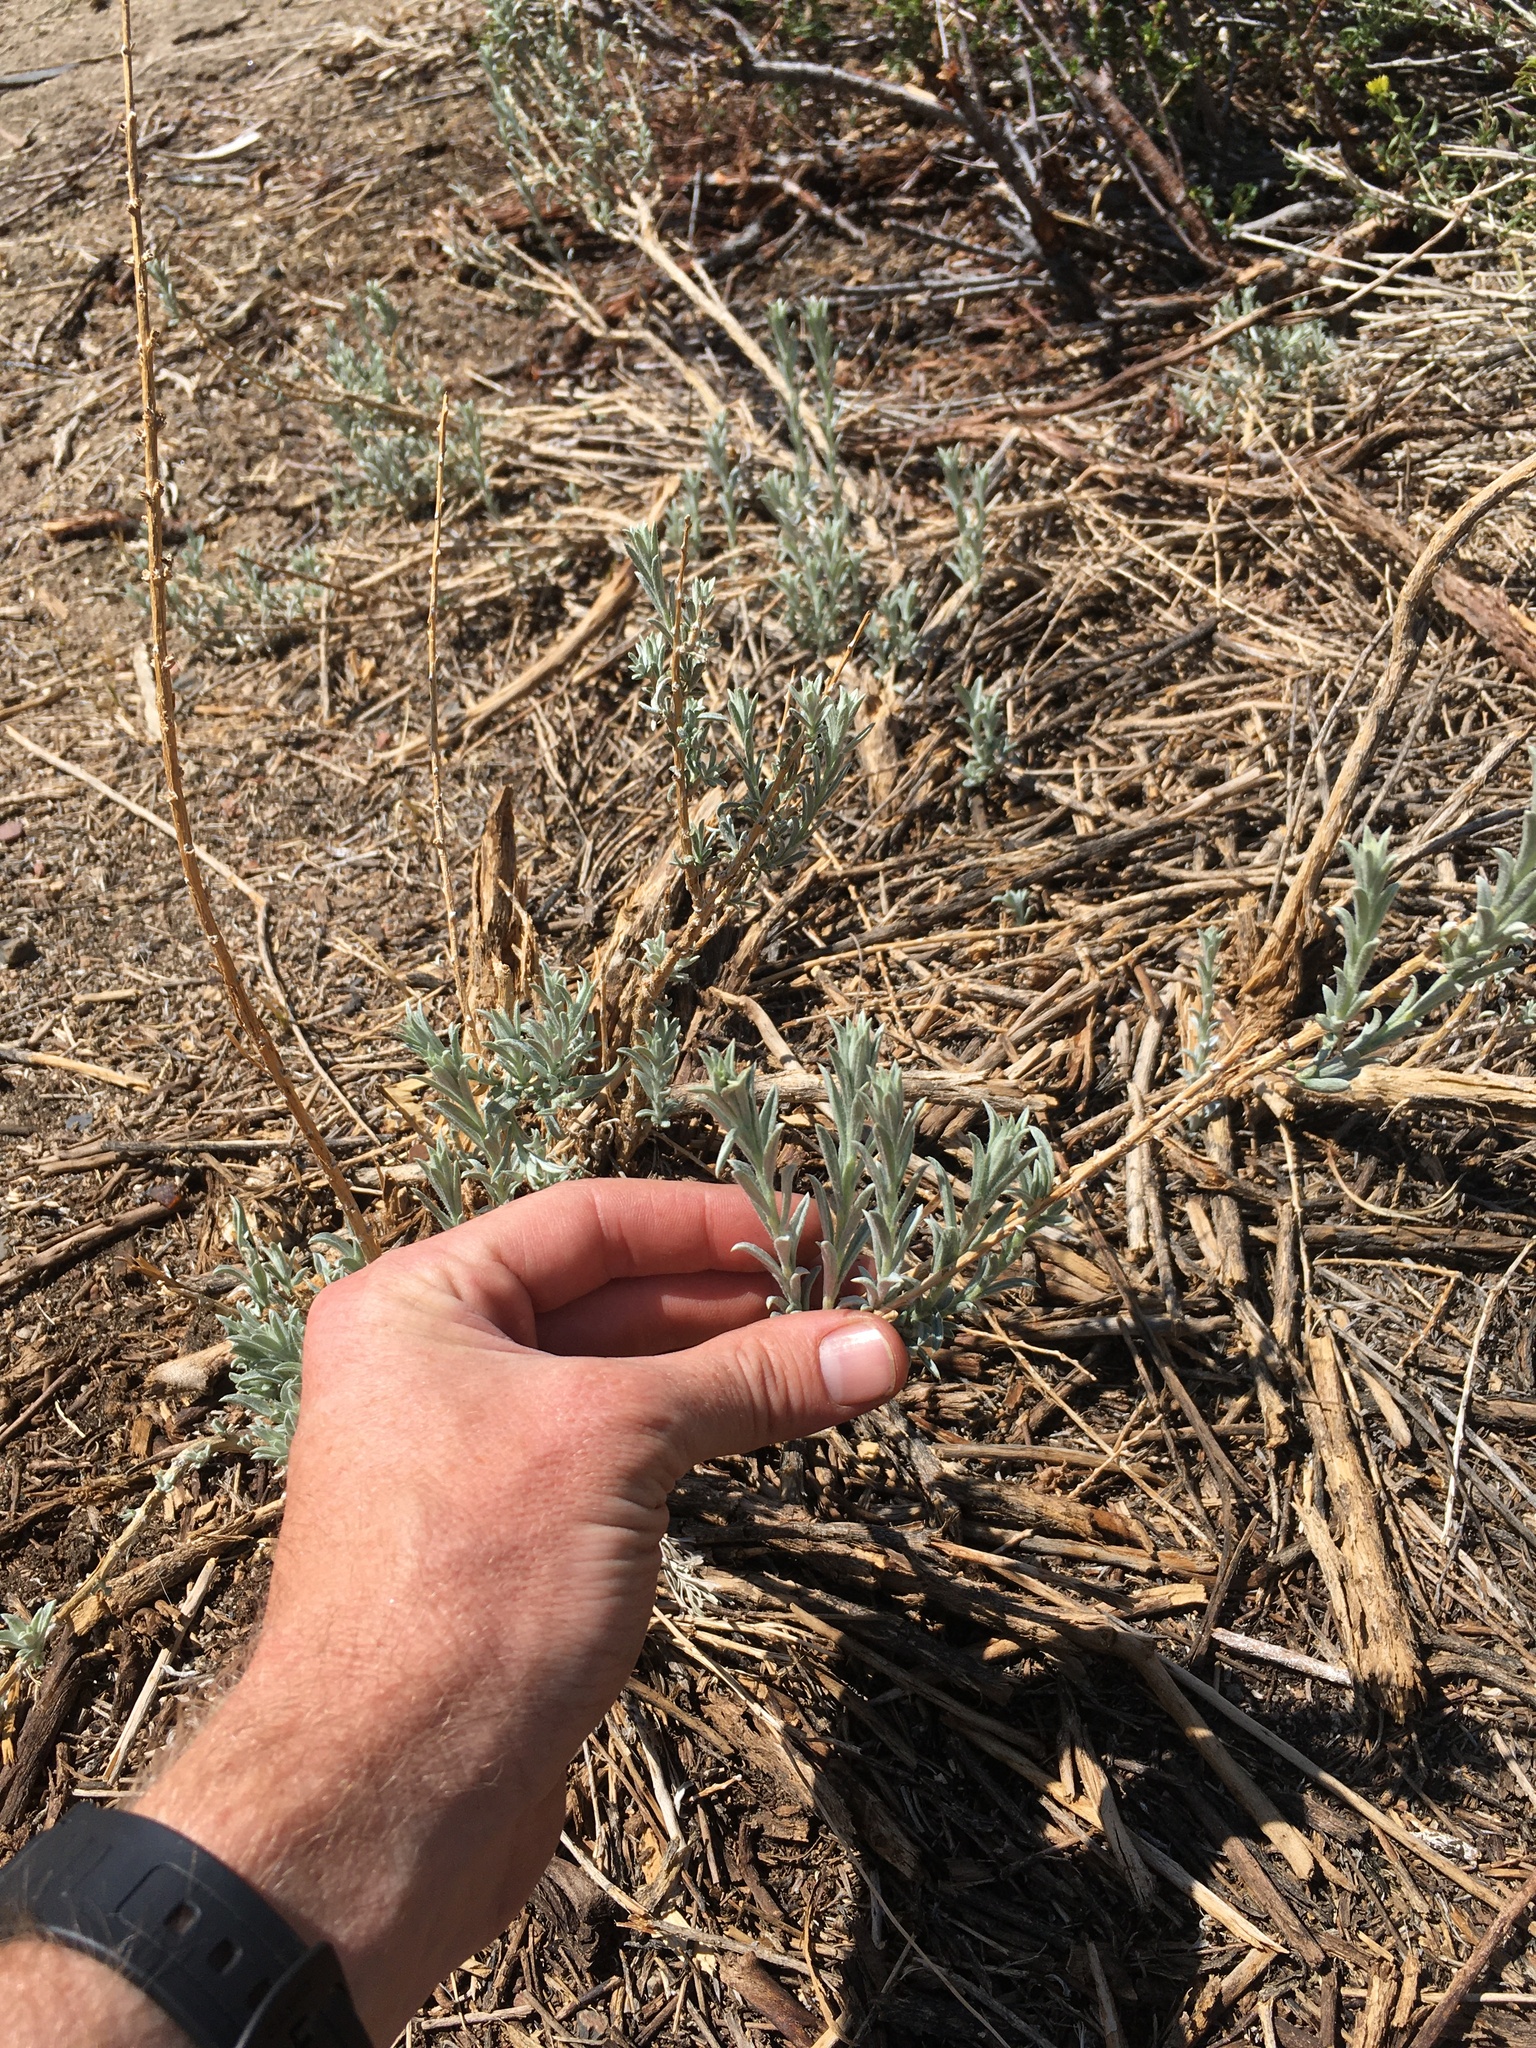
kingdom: Plantae
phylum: Tracheophyta
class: Magnoliopsida
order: Asterales
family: Asteraceae
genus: Tetradymia
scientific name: Tetradymia canescens
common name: Spineless horsebrush
